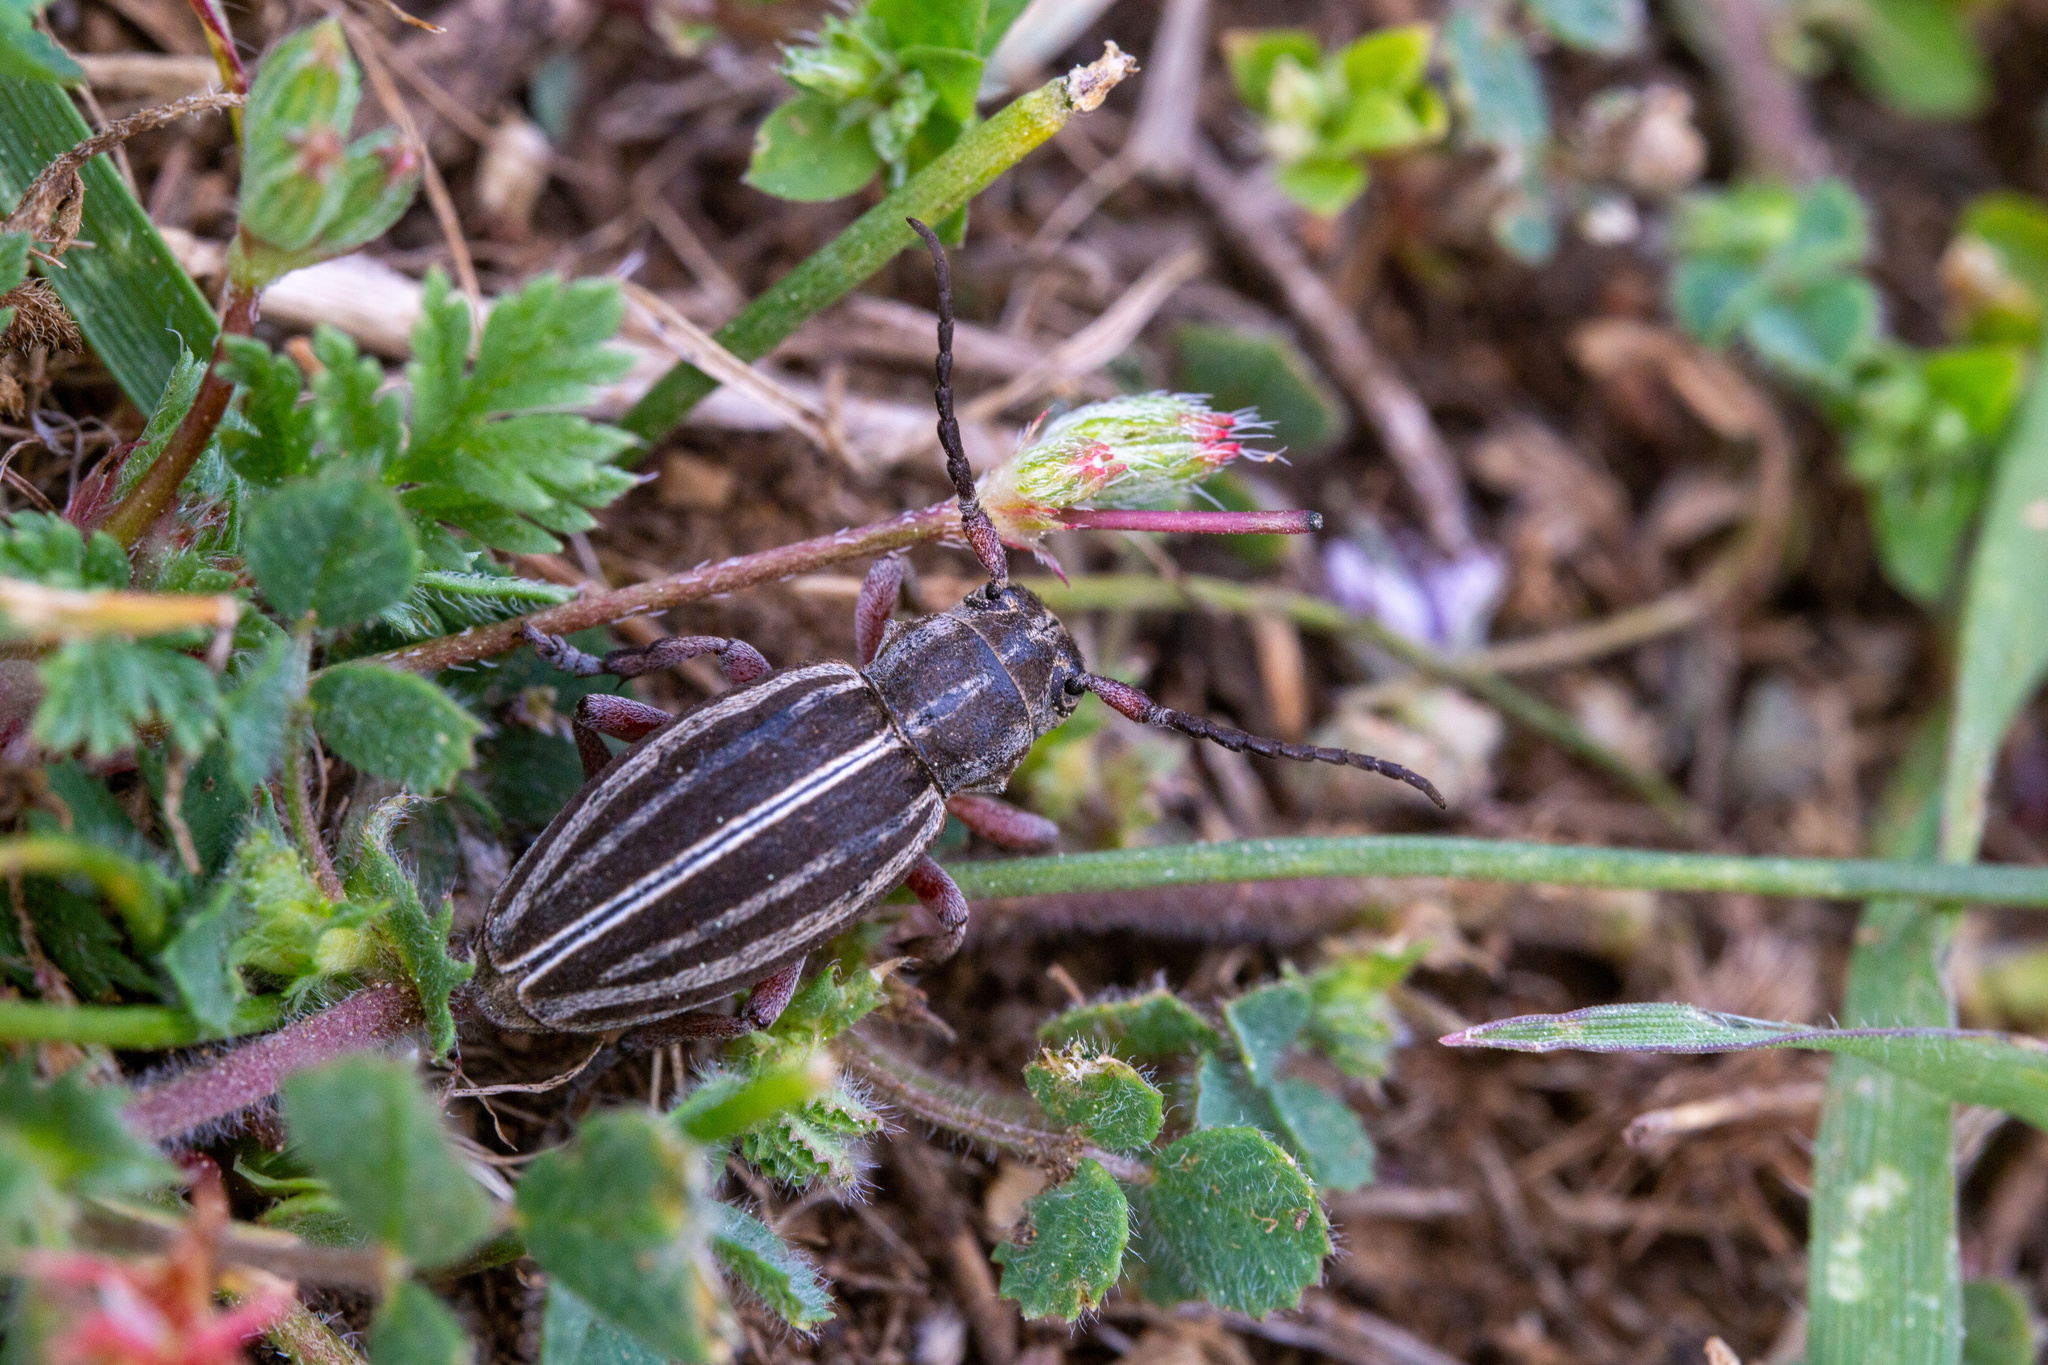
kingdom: Animalia
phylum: Arthropoda
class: Insecta
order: Coleoptera
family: Cerambycidae
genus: Dorcadion
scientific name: Dorcadion lineatocolle
